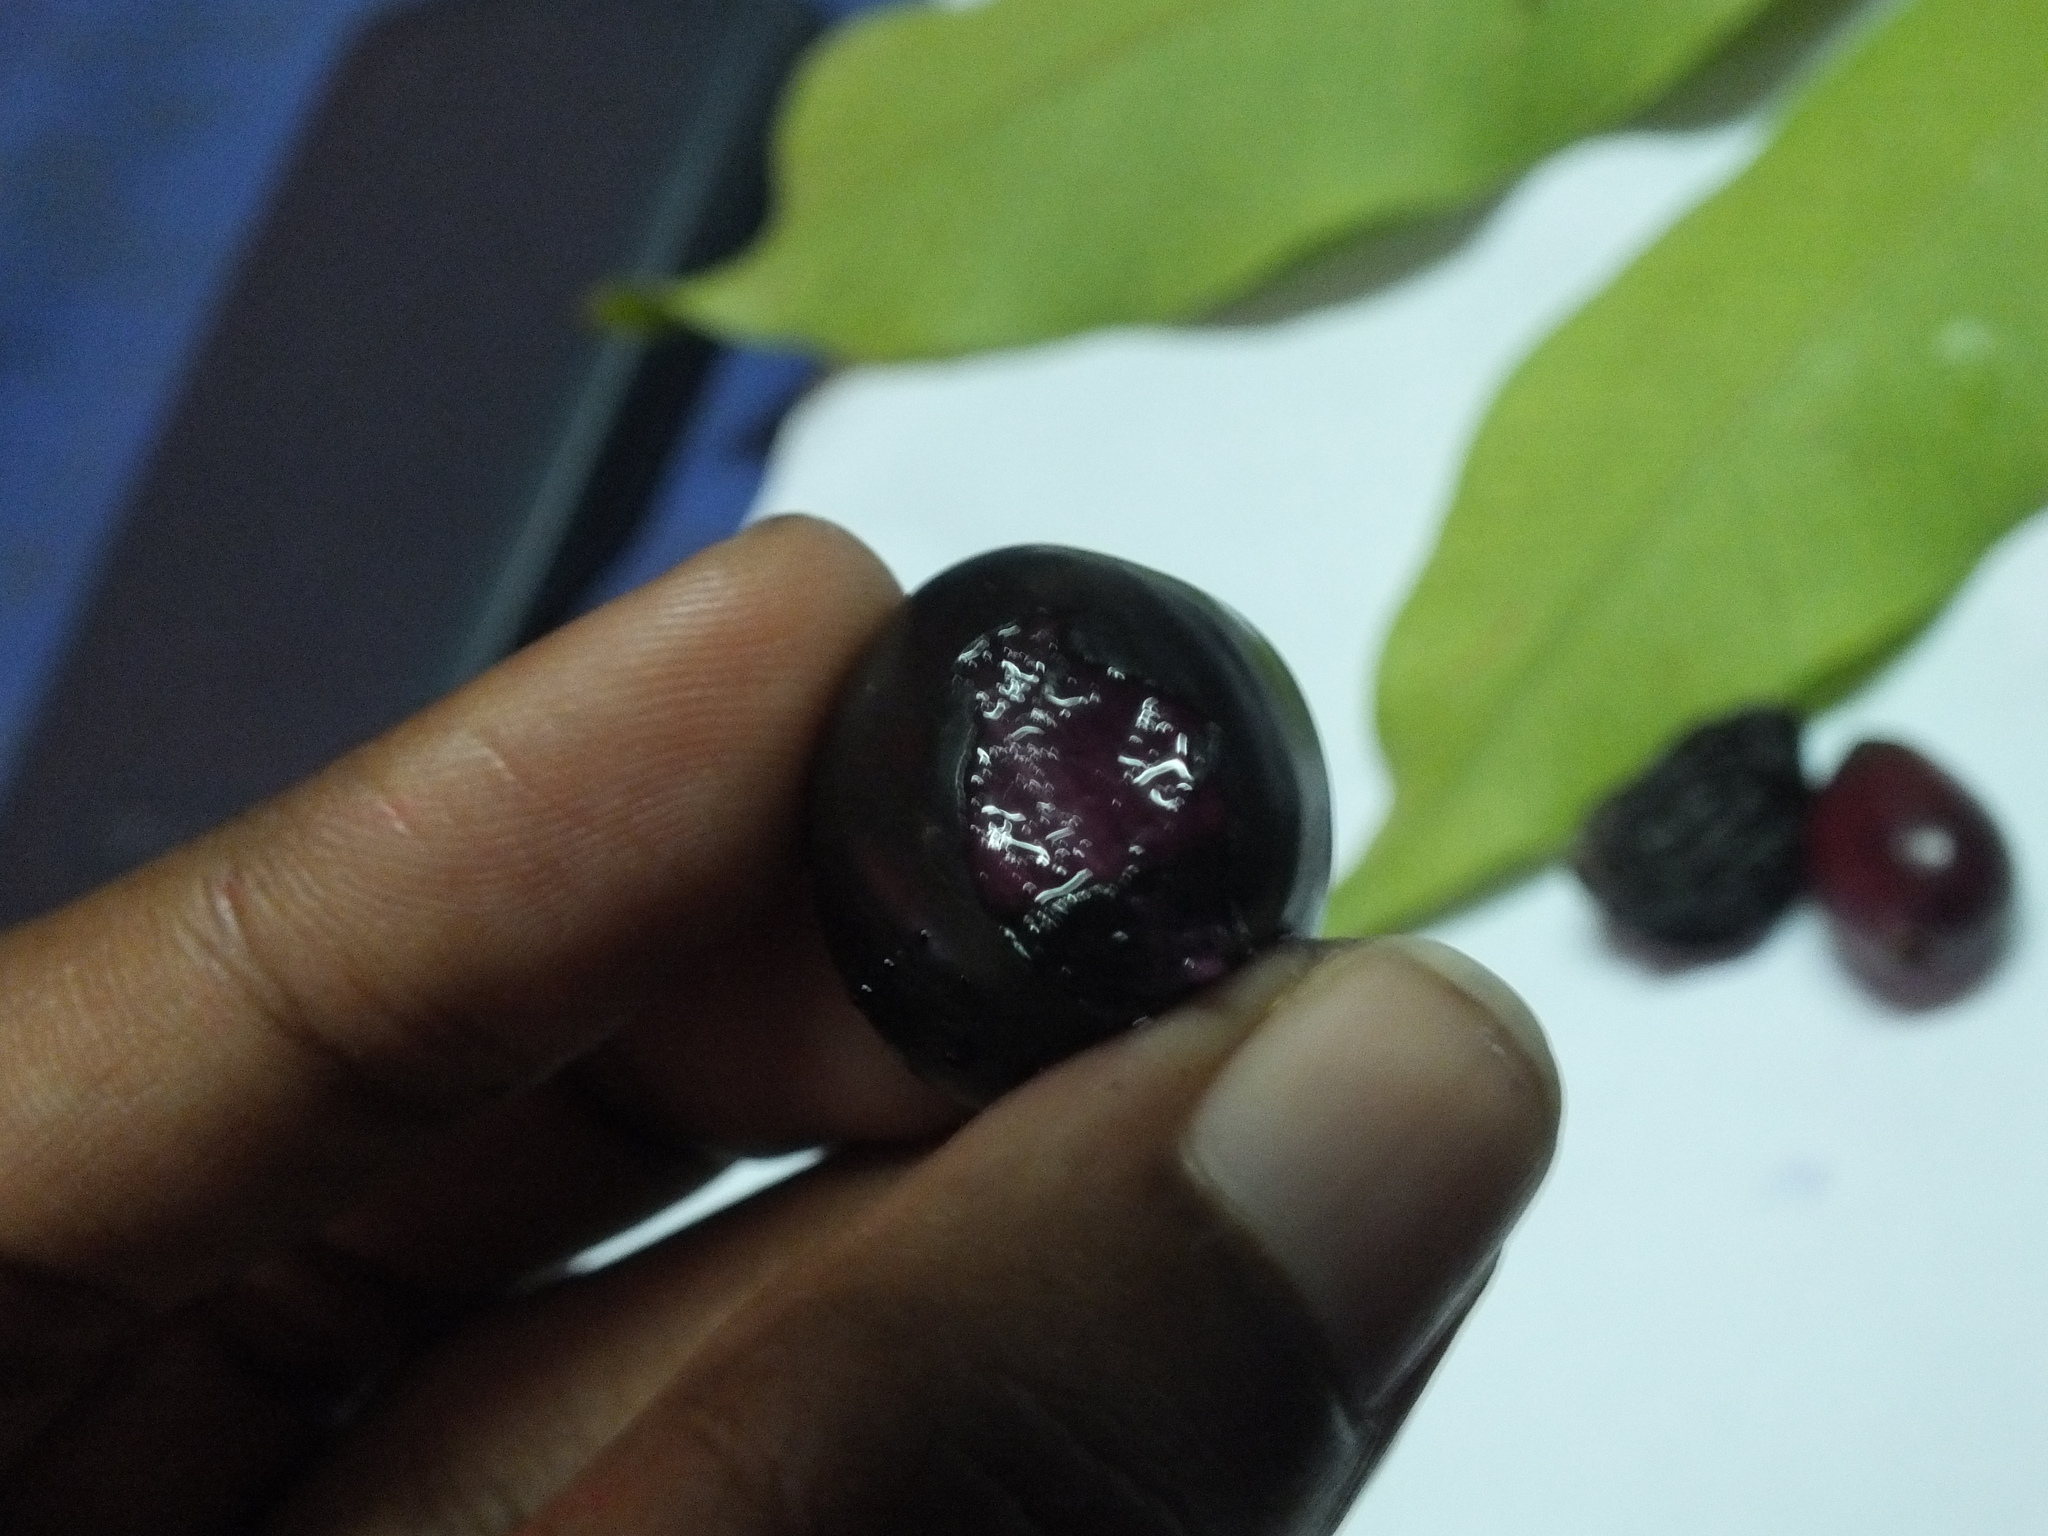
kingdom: Plantae
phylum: Tracheophyta
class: Magnoliopsida
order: Myrtales
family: Myrtaceae
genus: Syzygium
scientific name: Syzygium cumini
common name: Java plum
